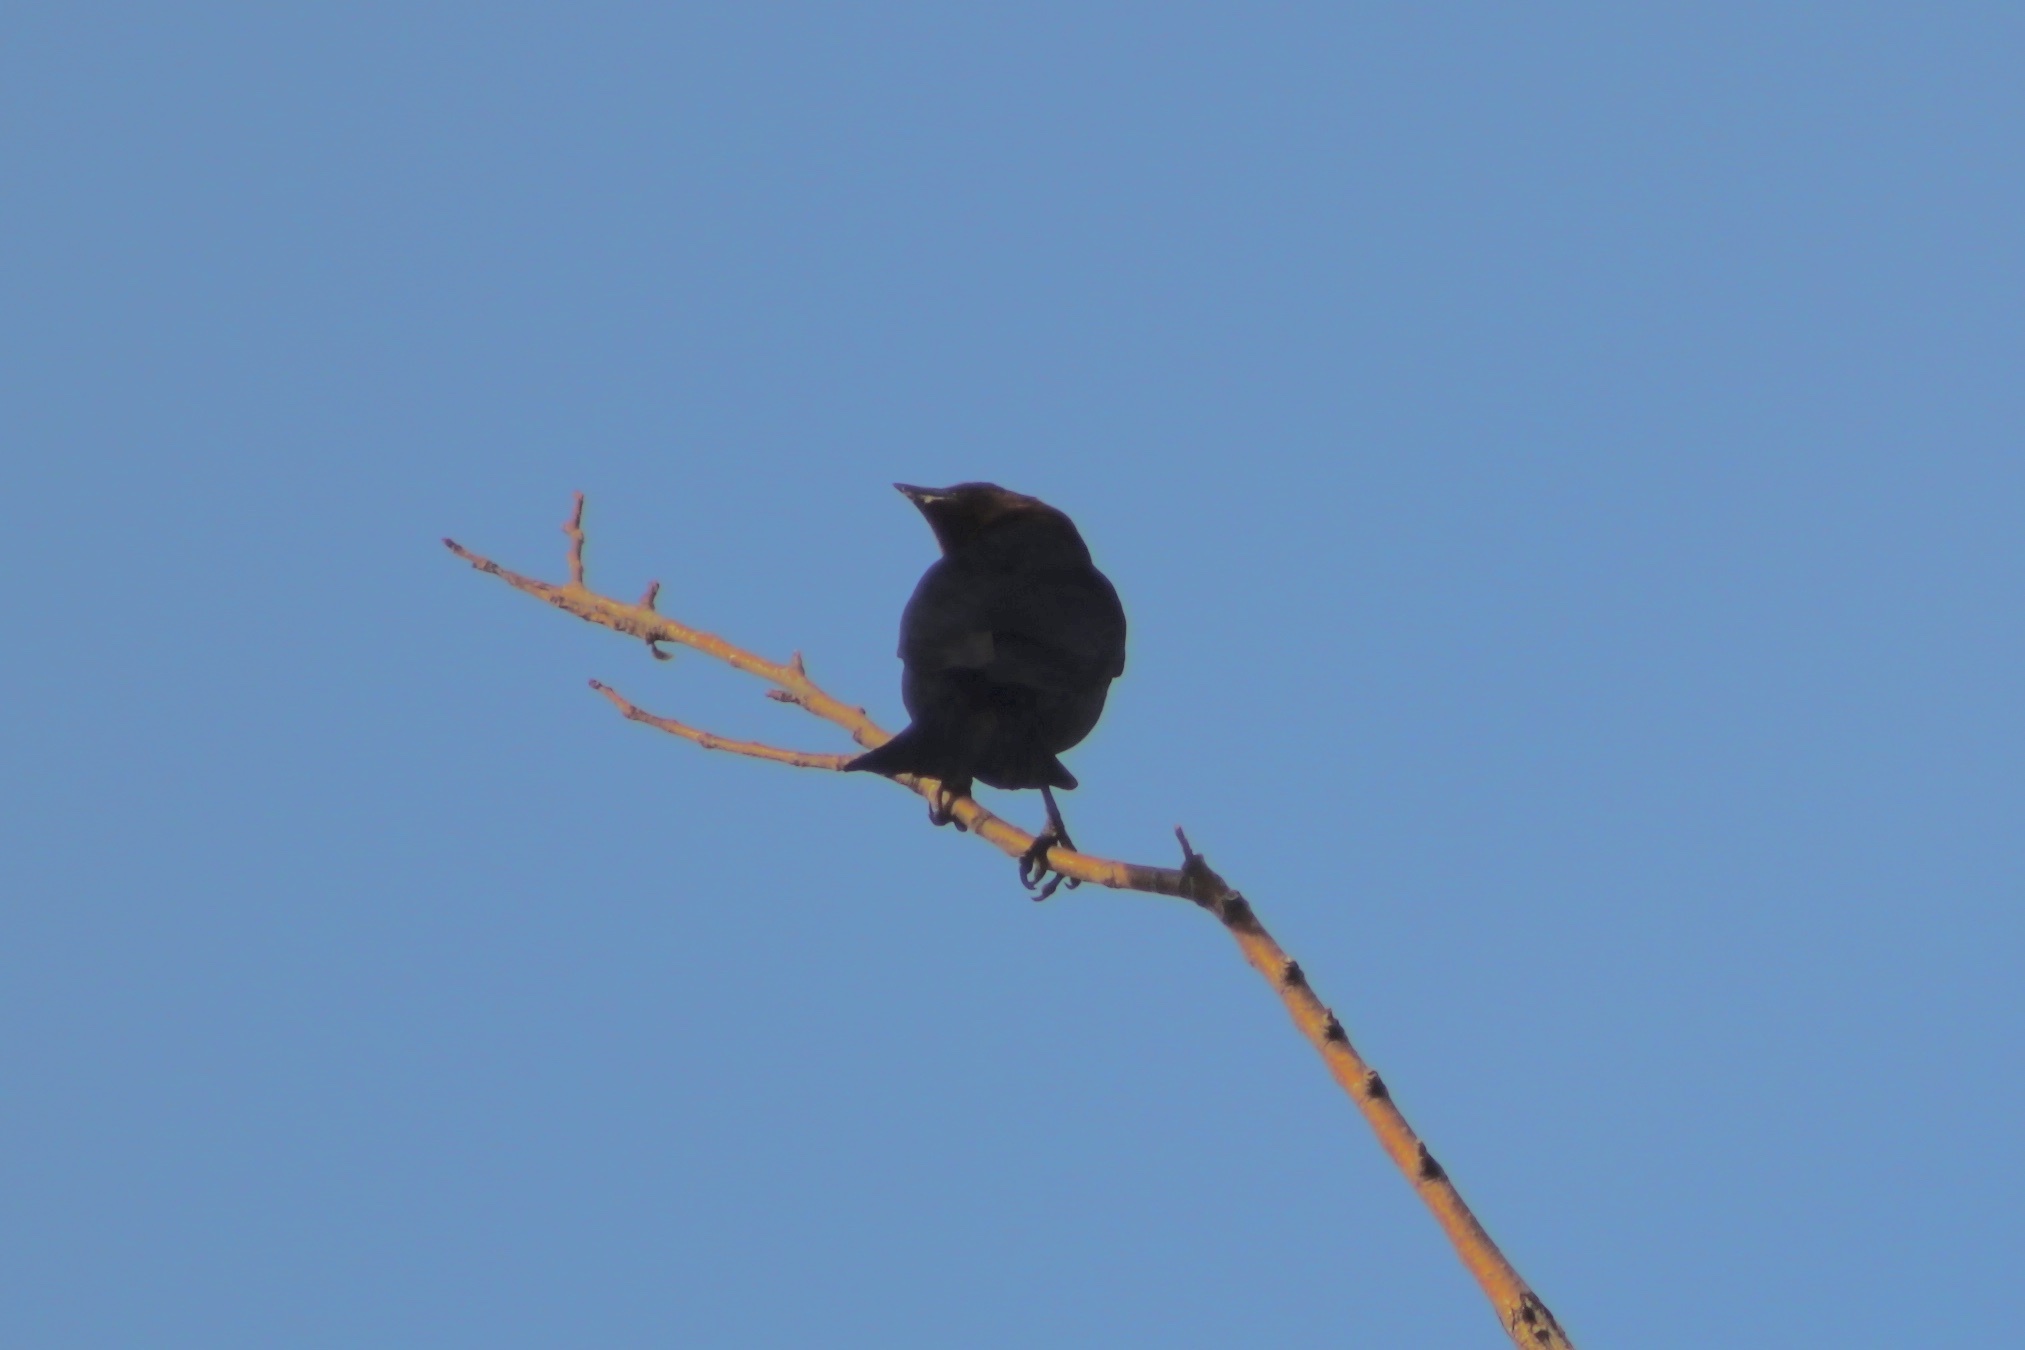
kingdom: Animalia
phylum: Chordata
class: Aves
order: Passeriformes
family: Icteridae
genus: Molothrus
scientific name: Molothrus ater
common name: Brown-headed cowbird
